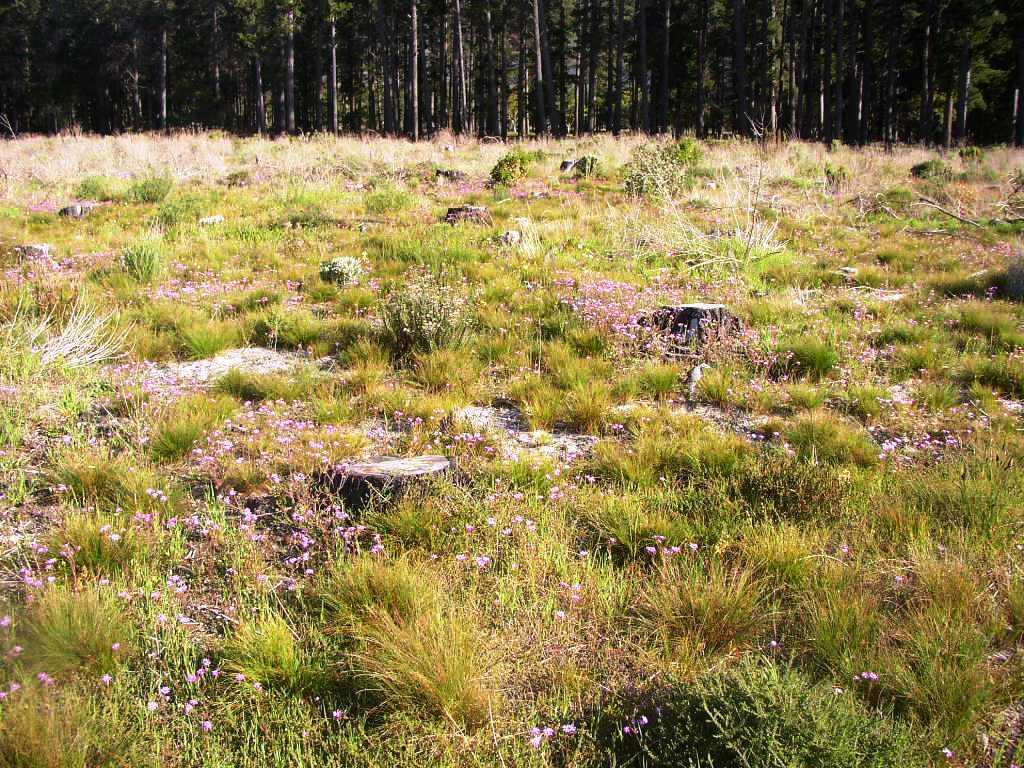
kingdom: Plantae
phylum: Tracheophyta
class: Magnoliopsida
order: Asterales
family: Asteraceae
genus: Senecio
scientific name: Senecio arenarius
